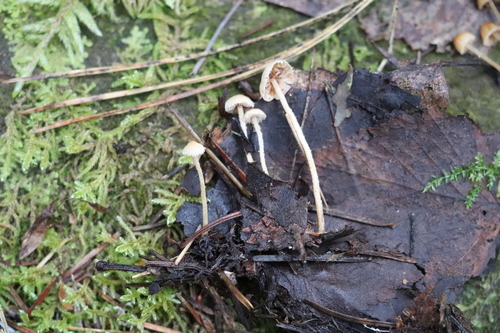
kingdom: Fungi
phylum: Basidiomycota
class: Agaricomycetes
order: Agaricales
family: Tubariaceae
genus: Flammulaster
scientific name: Flammulaster
